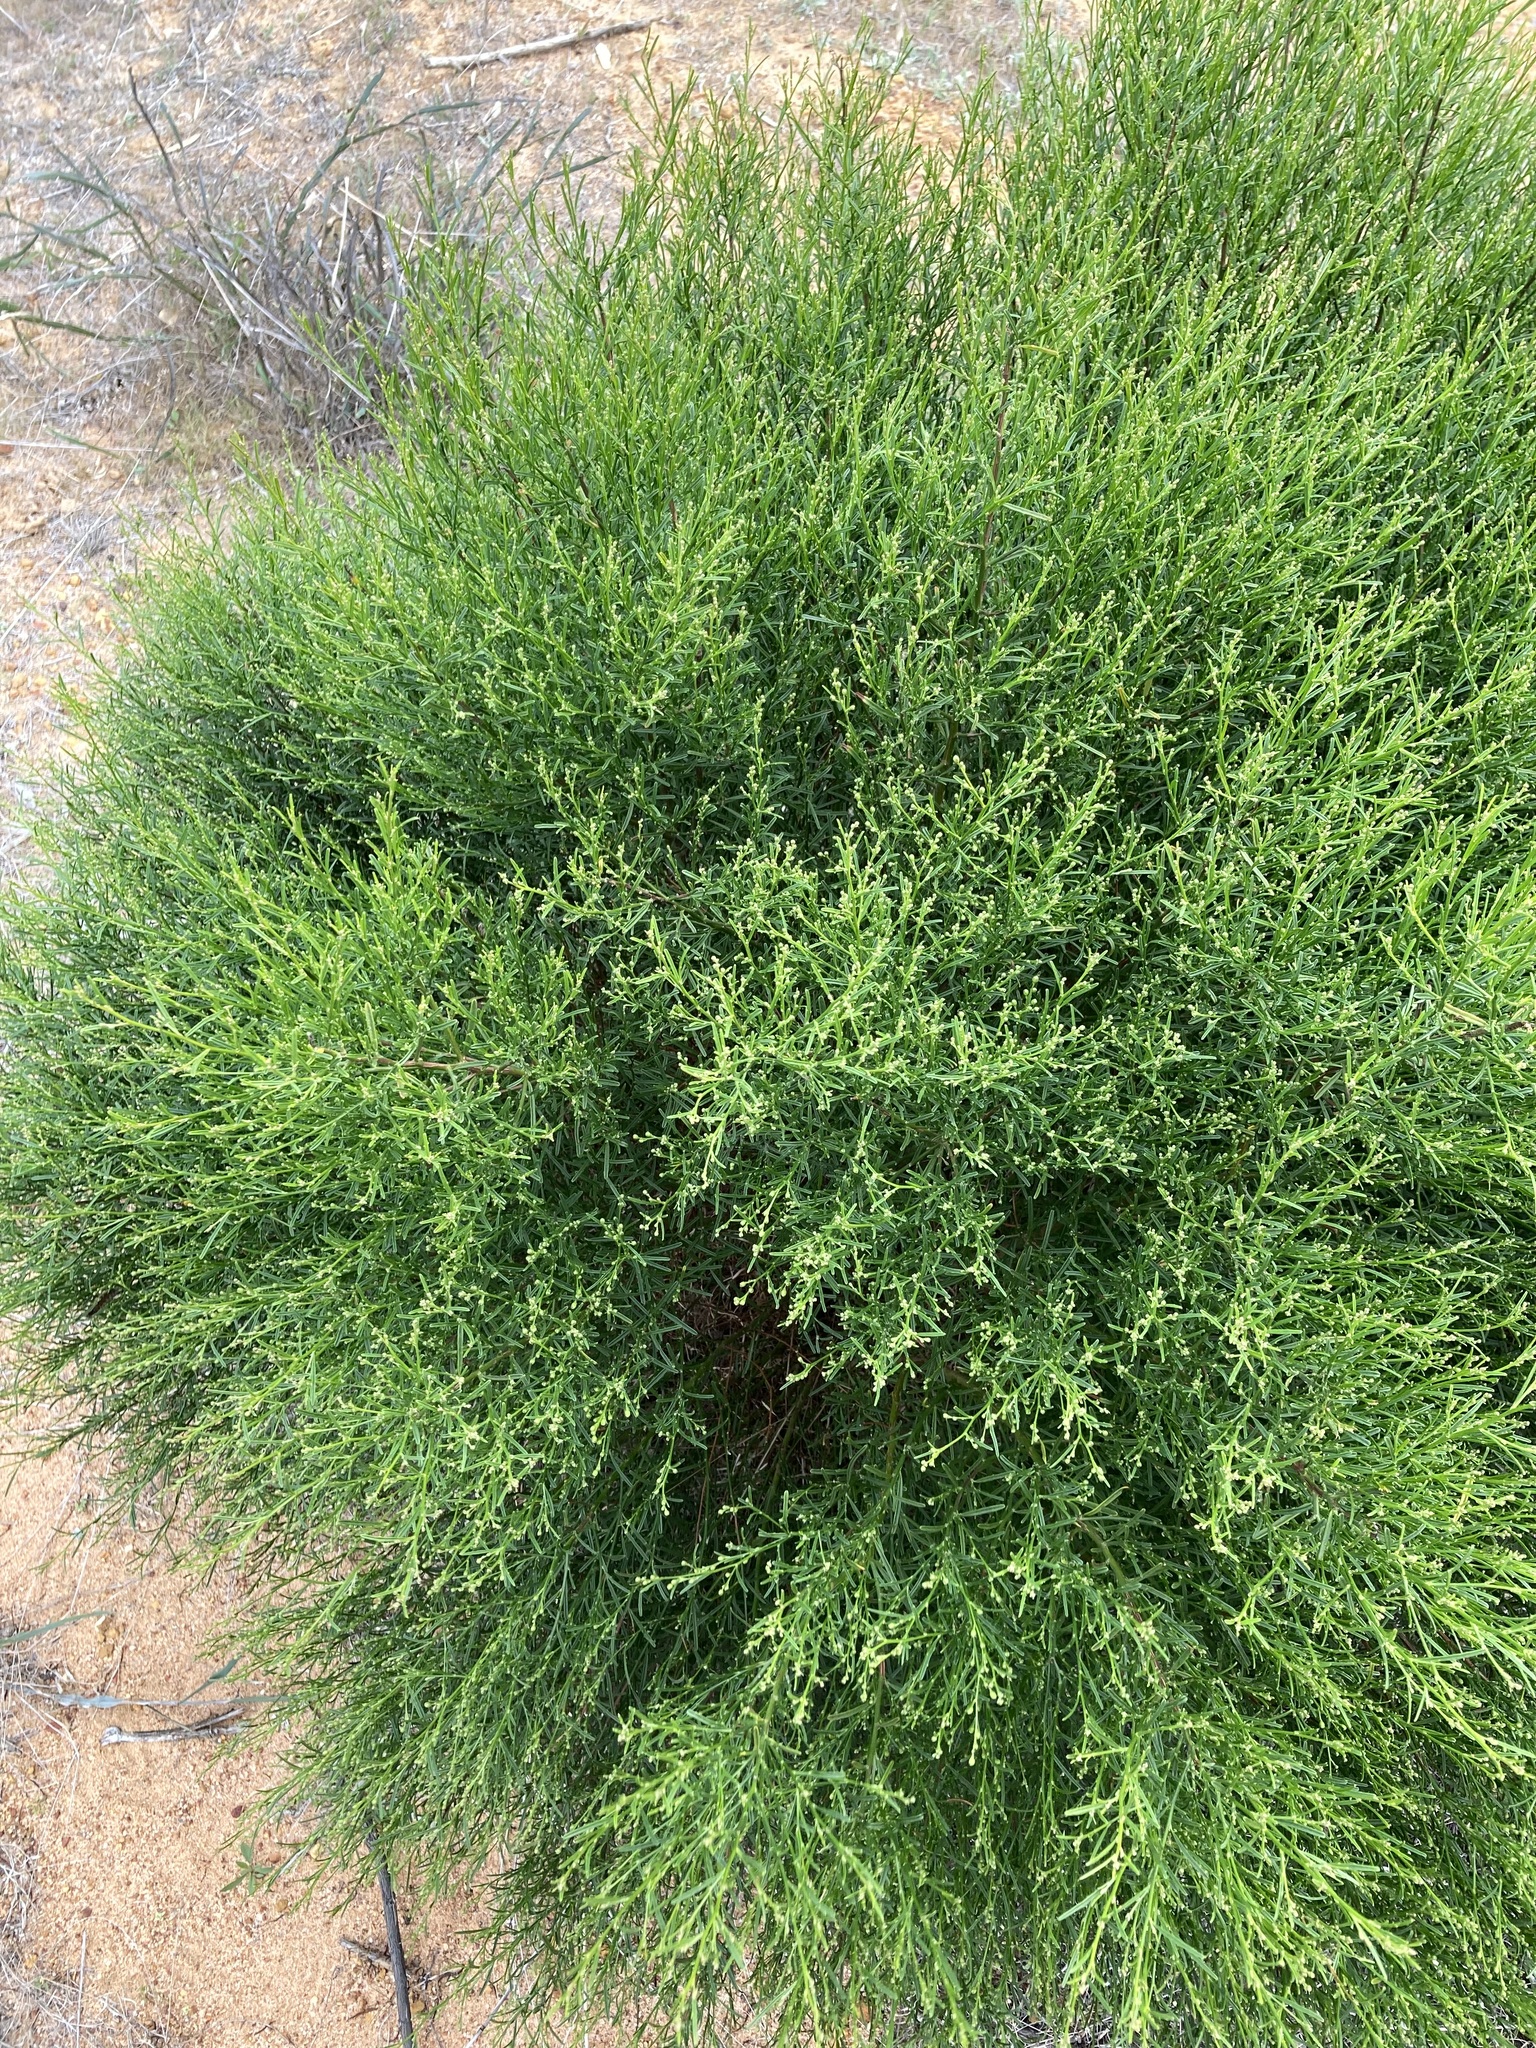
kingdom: Plantae
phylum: Tracheophyta
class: Magnoliopsida
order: Santalales
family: Opiliaceae
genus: Anthobolus
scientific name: Anthobolus foveolatus
